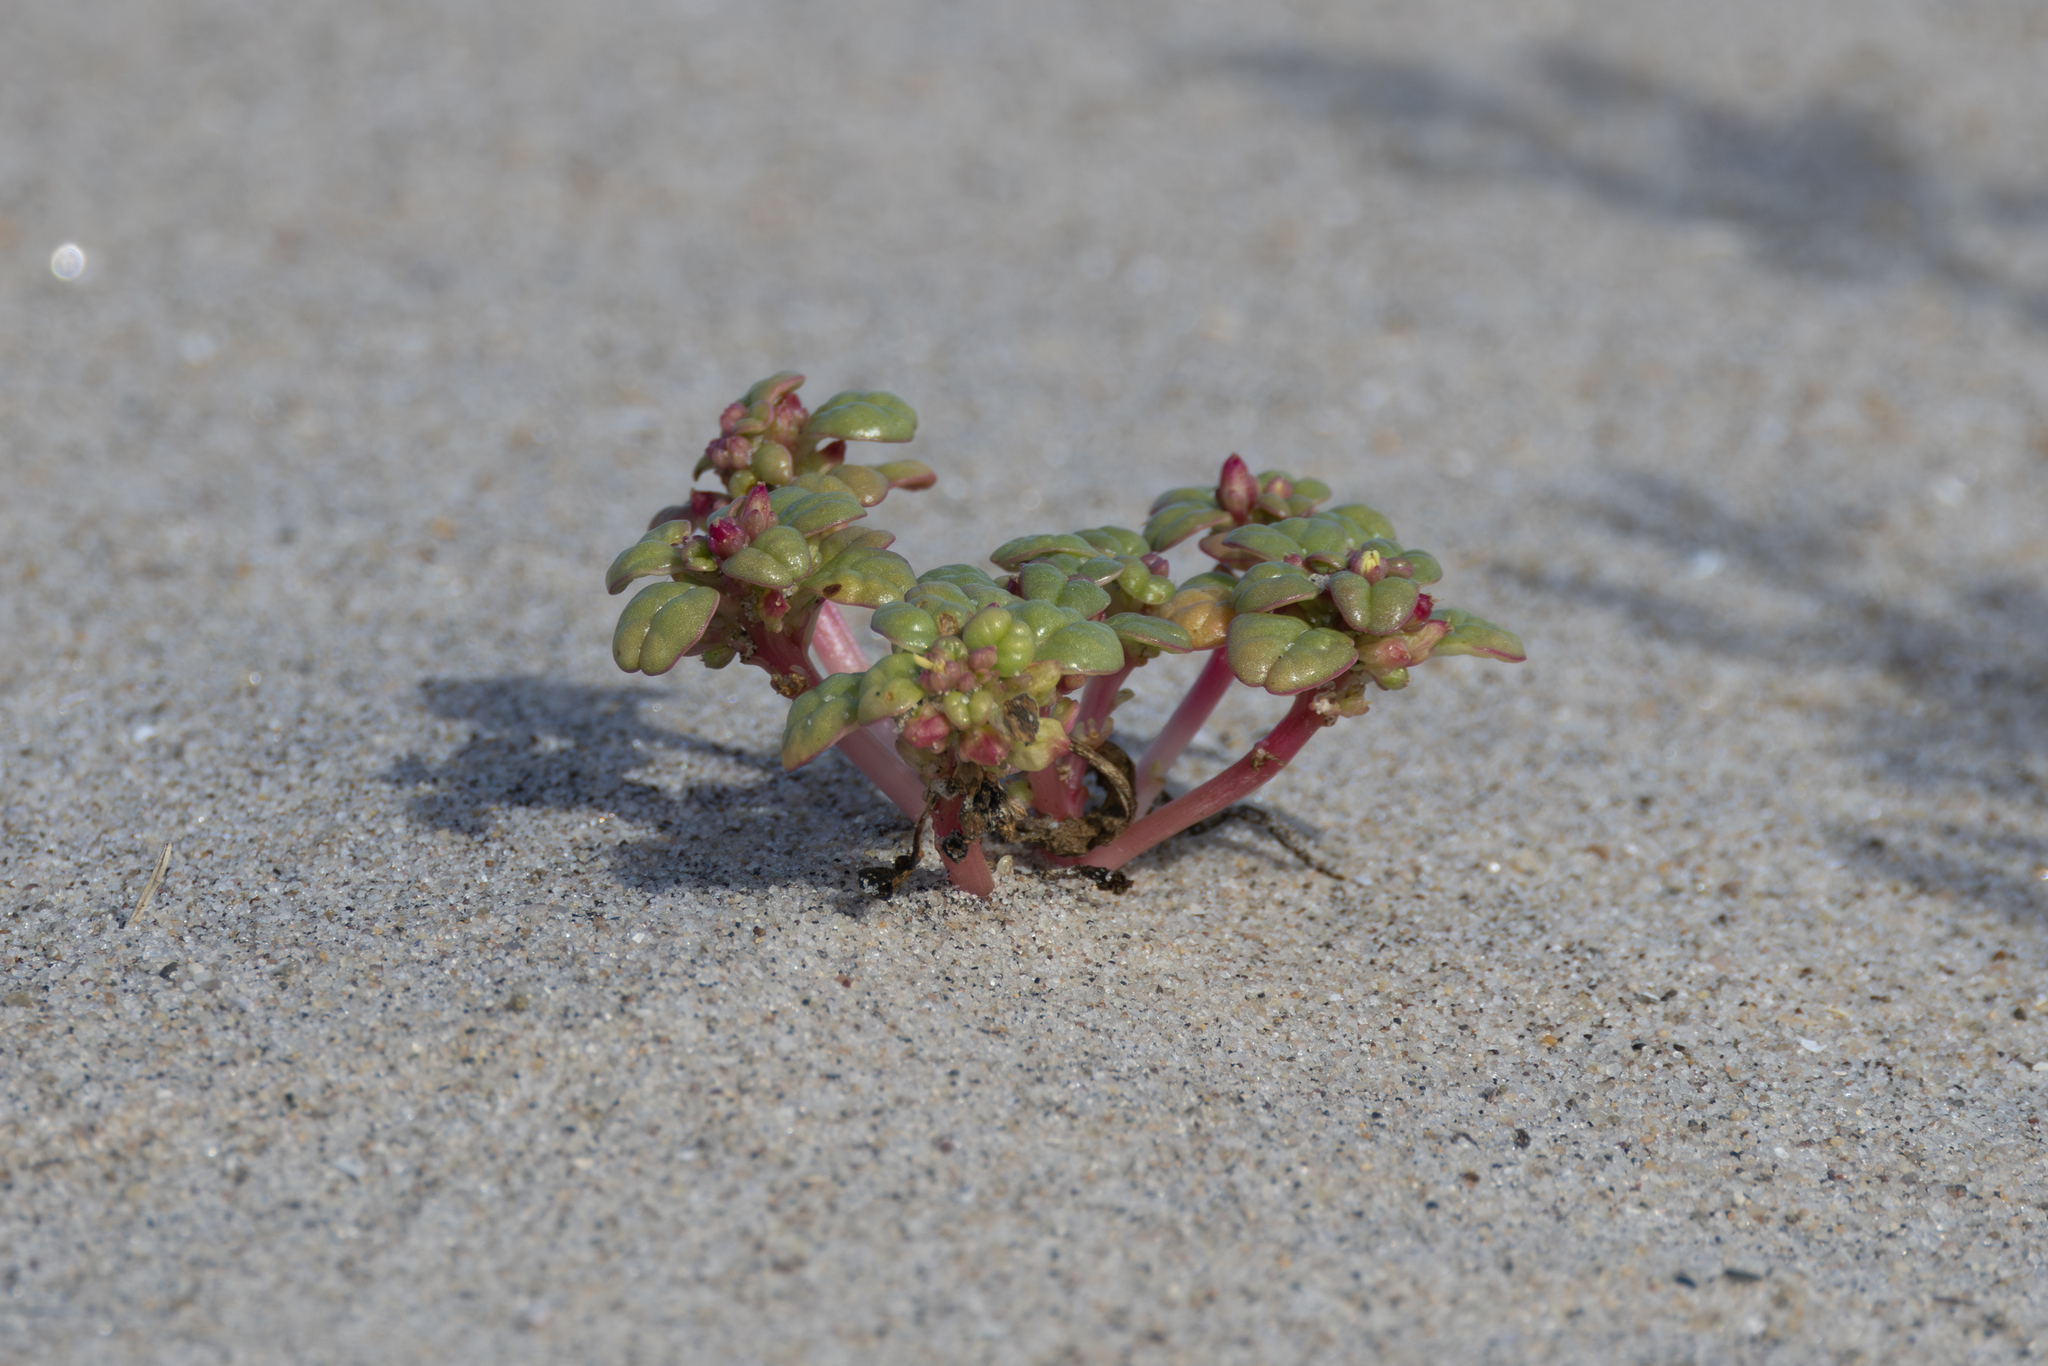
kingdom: Plantae
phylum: Tracheophyta
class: Magnoliopsida
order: Caryophyllales
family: Amaranthaceae
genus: Amaranthus
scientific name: Amaranthus pumilus
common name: Coast amaranth
